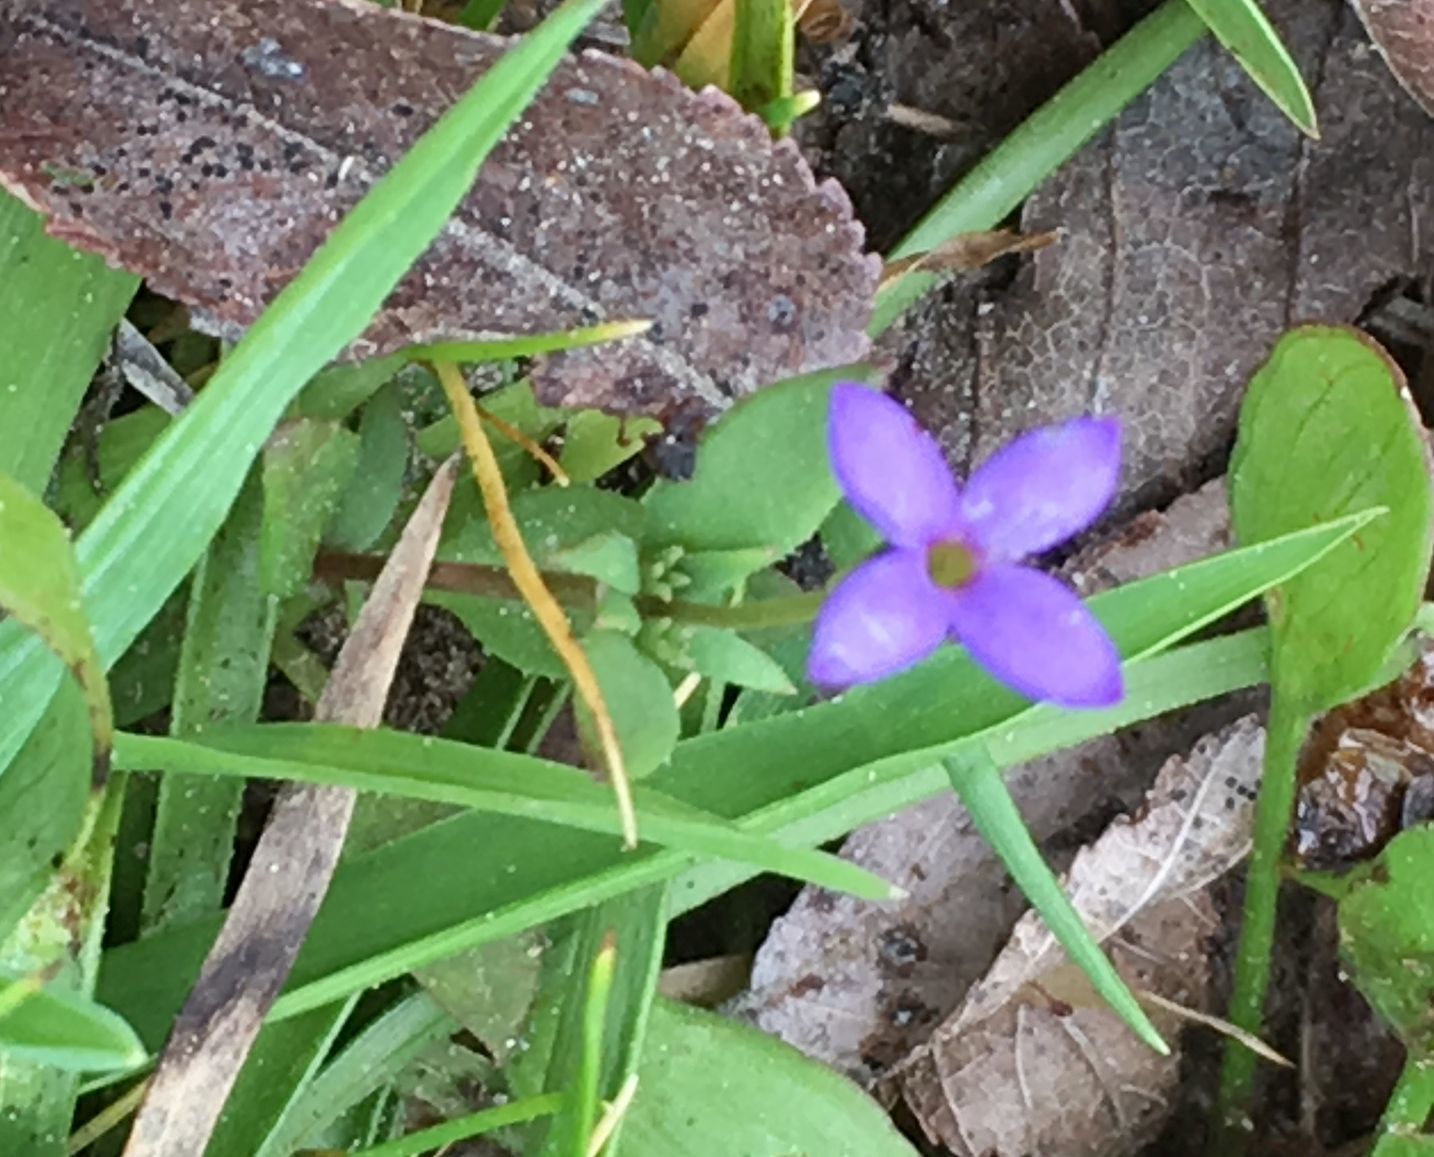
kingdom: Plantae
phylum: Tracheophyta
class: Magnoliopsida
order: Gentianales
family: Rubiaceae
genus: Houstonia
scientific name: Houstonia pusilla
